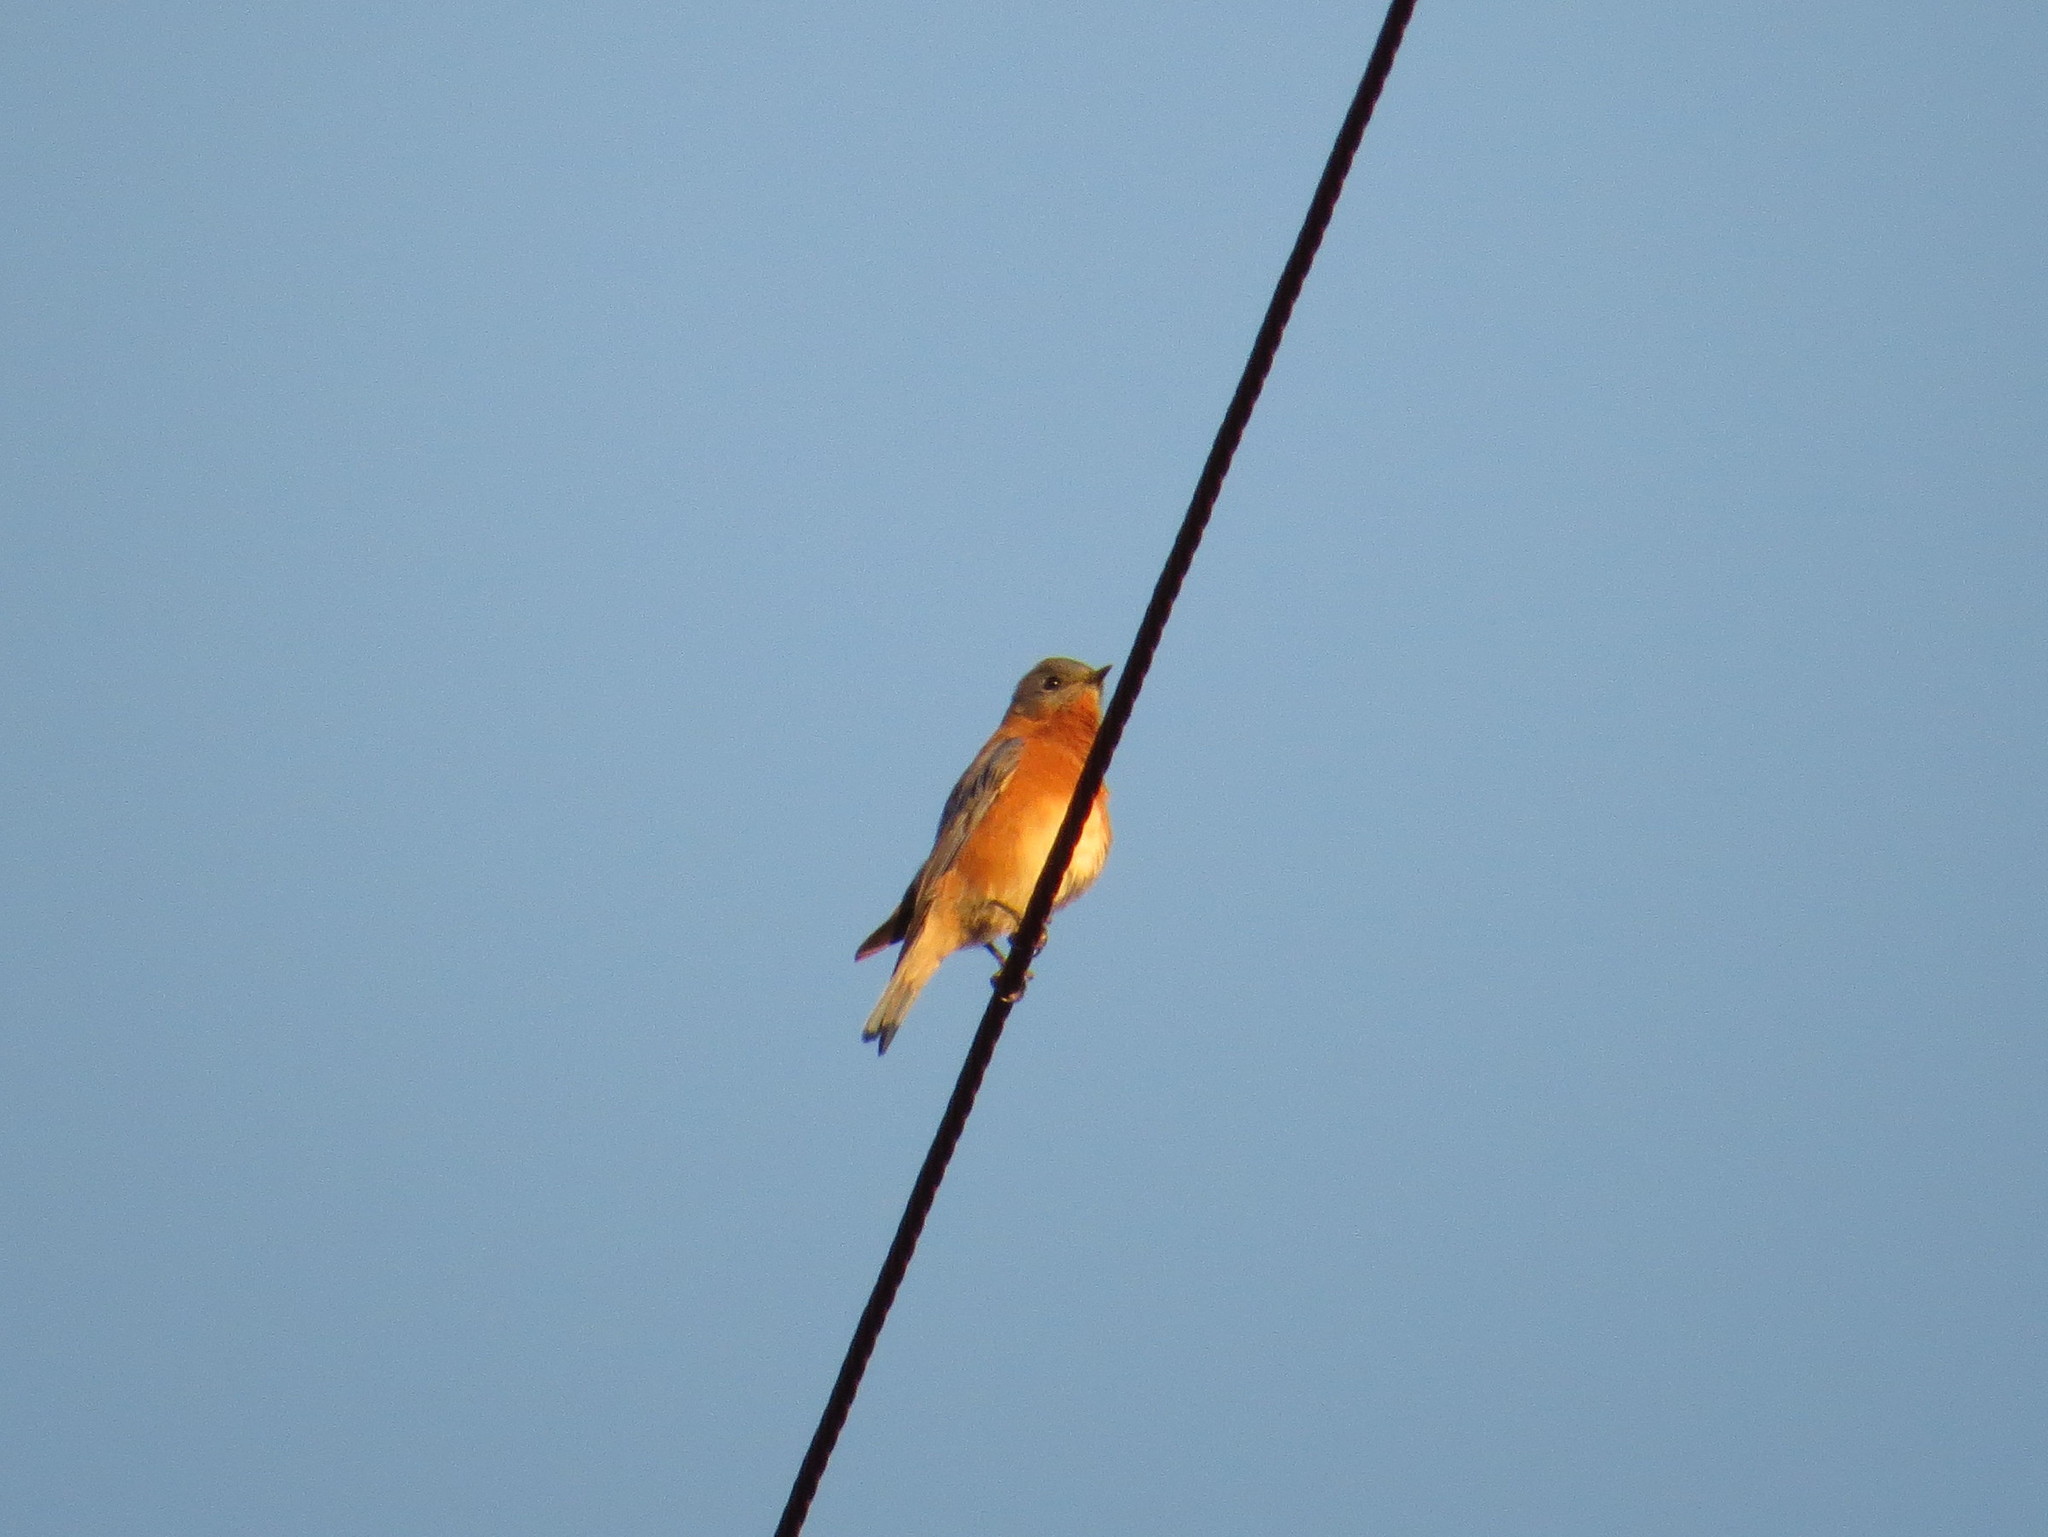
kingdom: Animalia
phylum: Chordata
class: Aves
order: Passeriformes
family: Turdidae
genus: Sialia
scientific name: Sialia sialis
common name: Eastern bluebird
